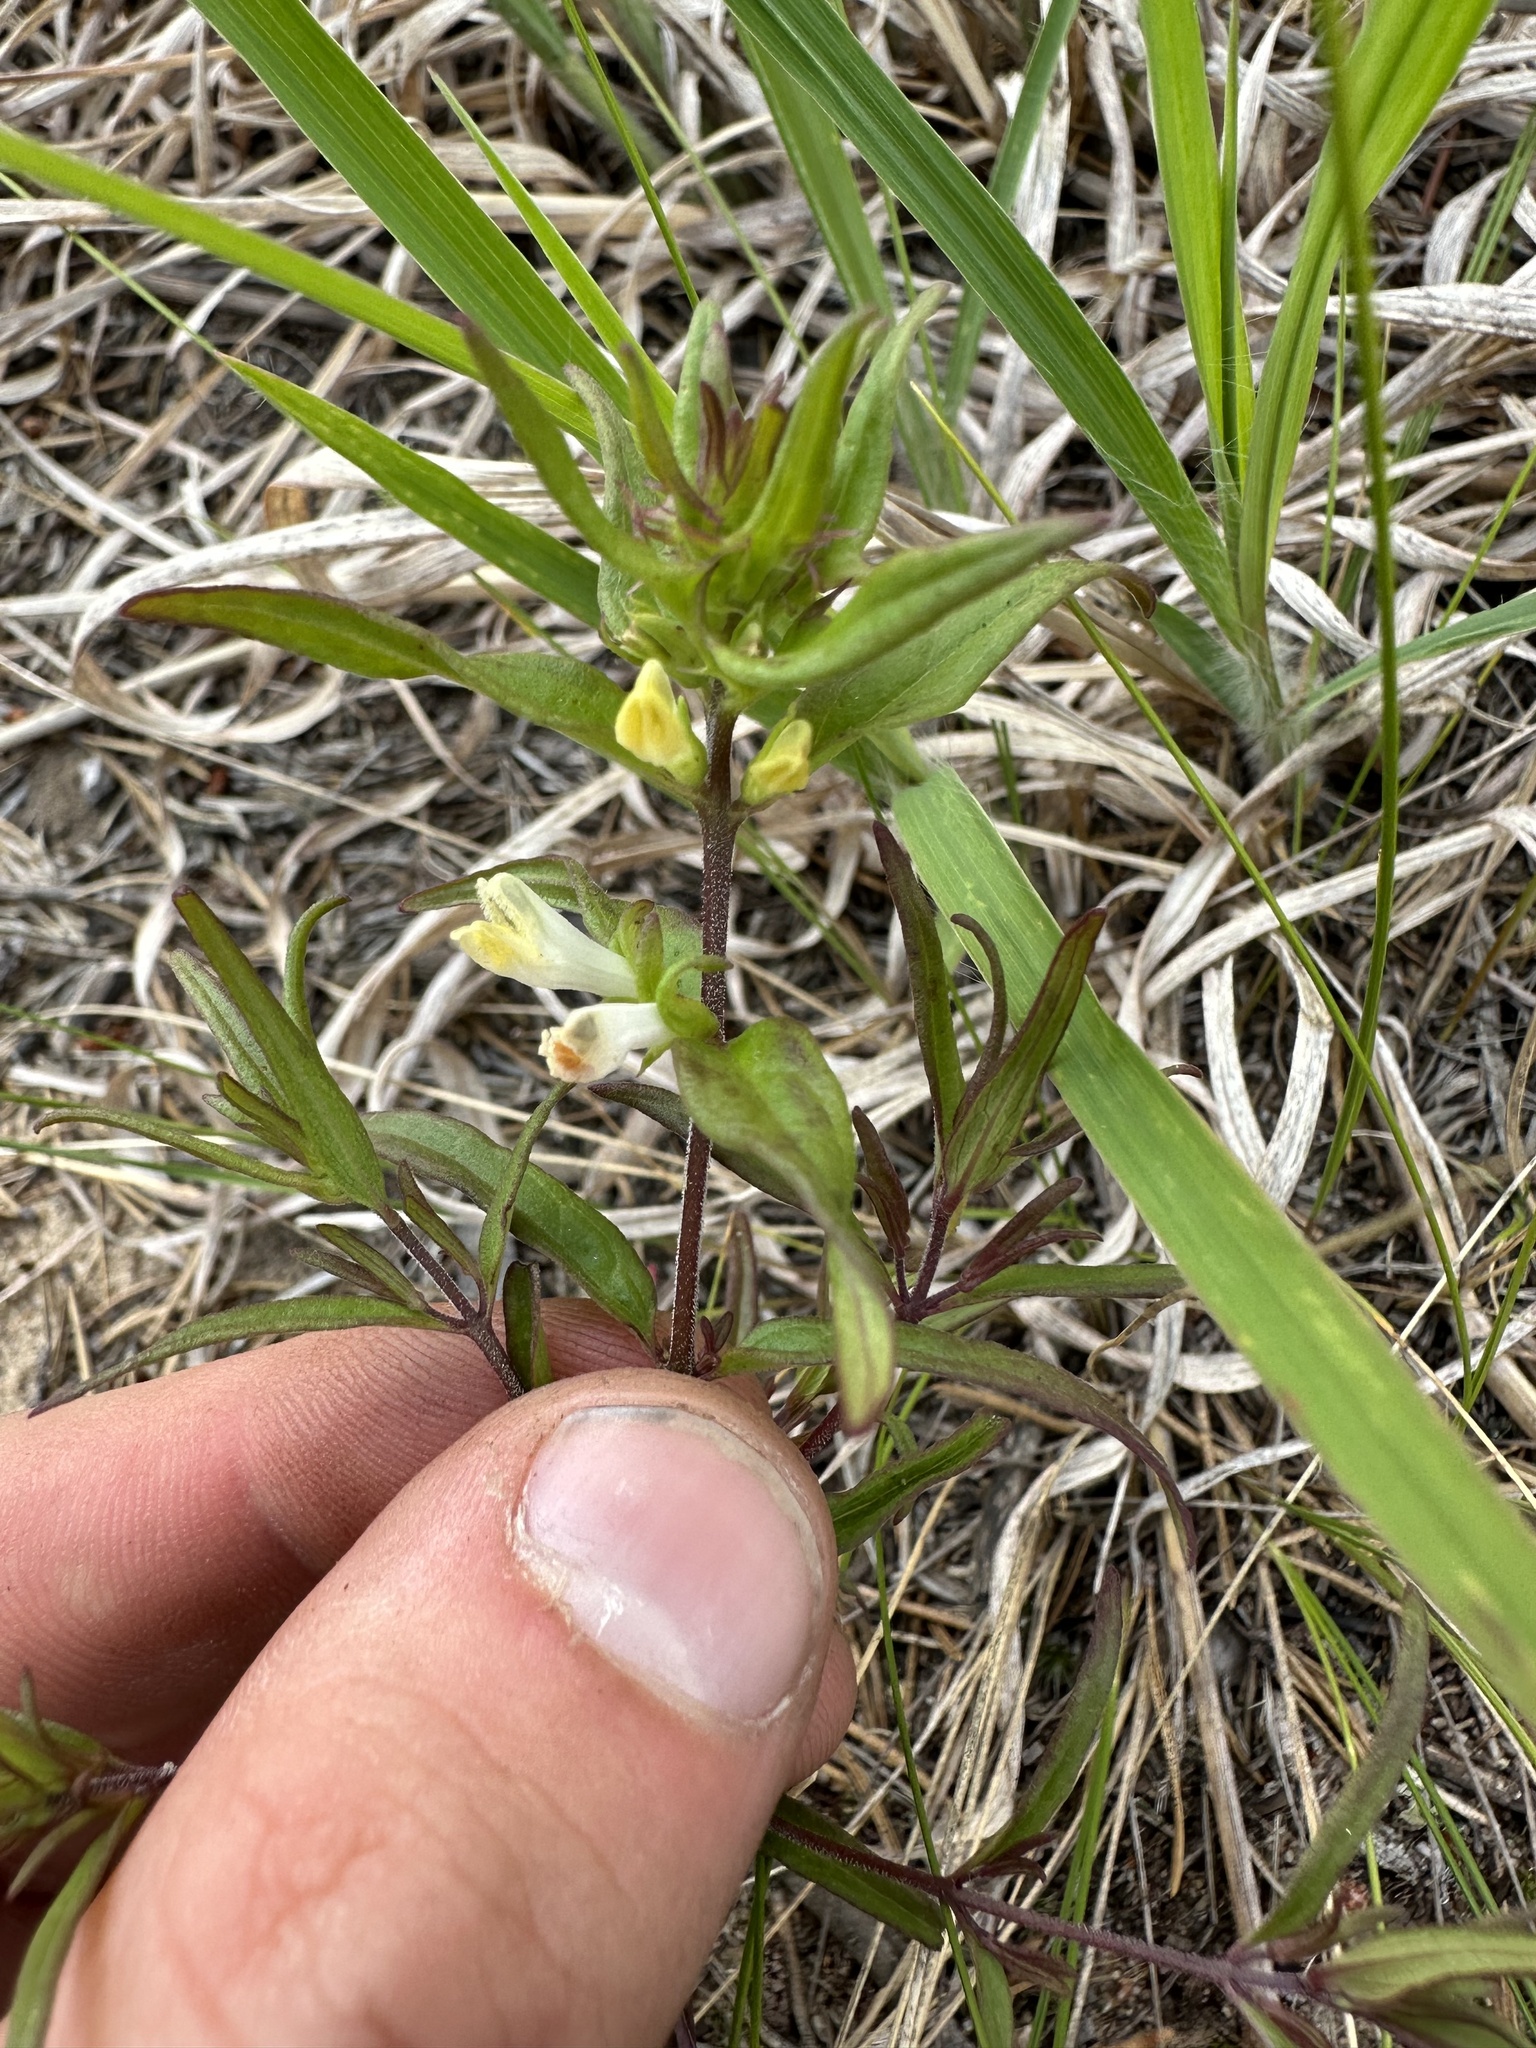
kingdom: Plantae
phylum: Tracheophyta
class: Magnoliopsida
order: Lamiales
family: Orobanchaceae
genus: Melampyrum
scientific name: Melampyrum lineare
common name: American cow-wheat
